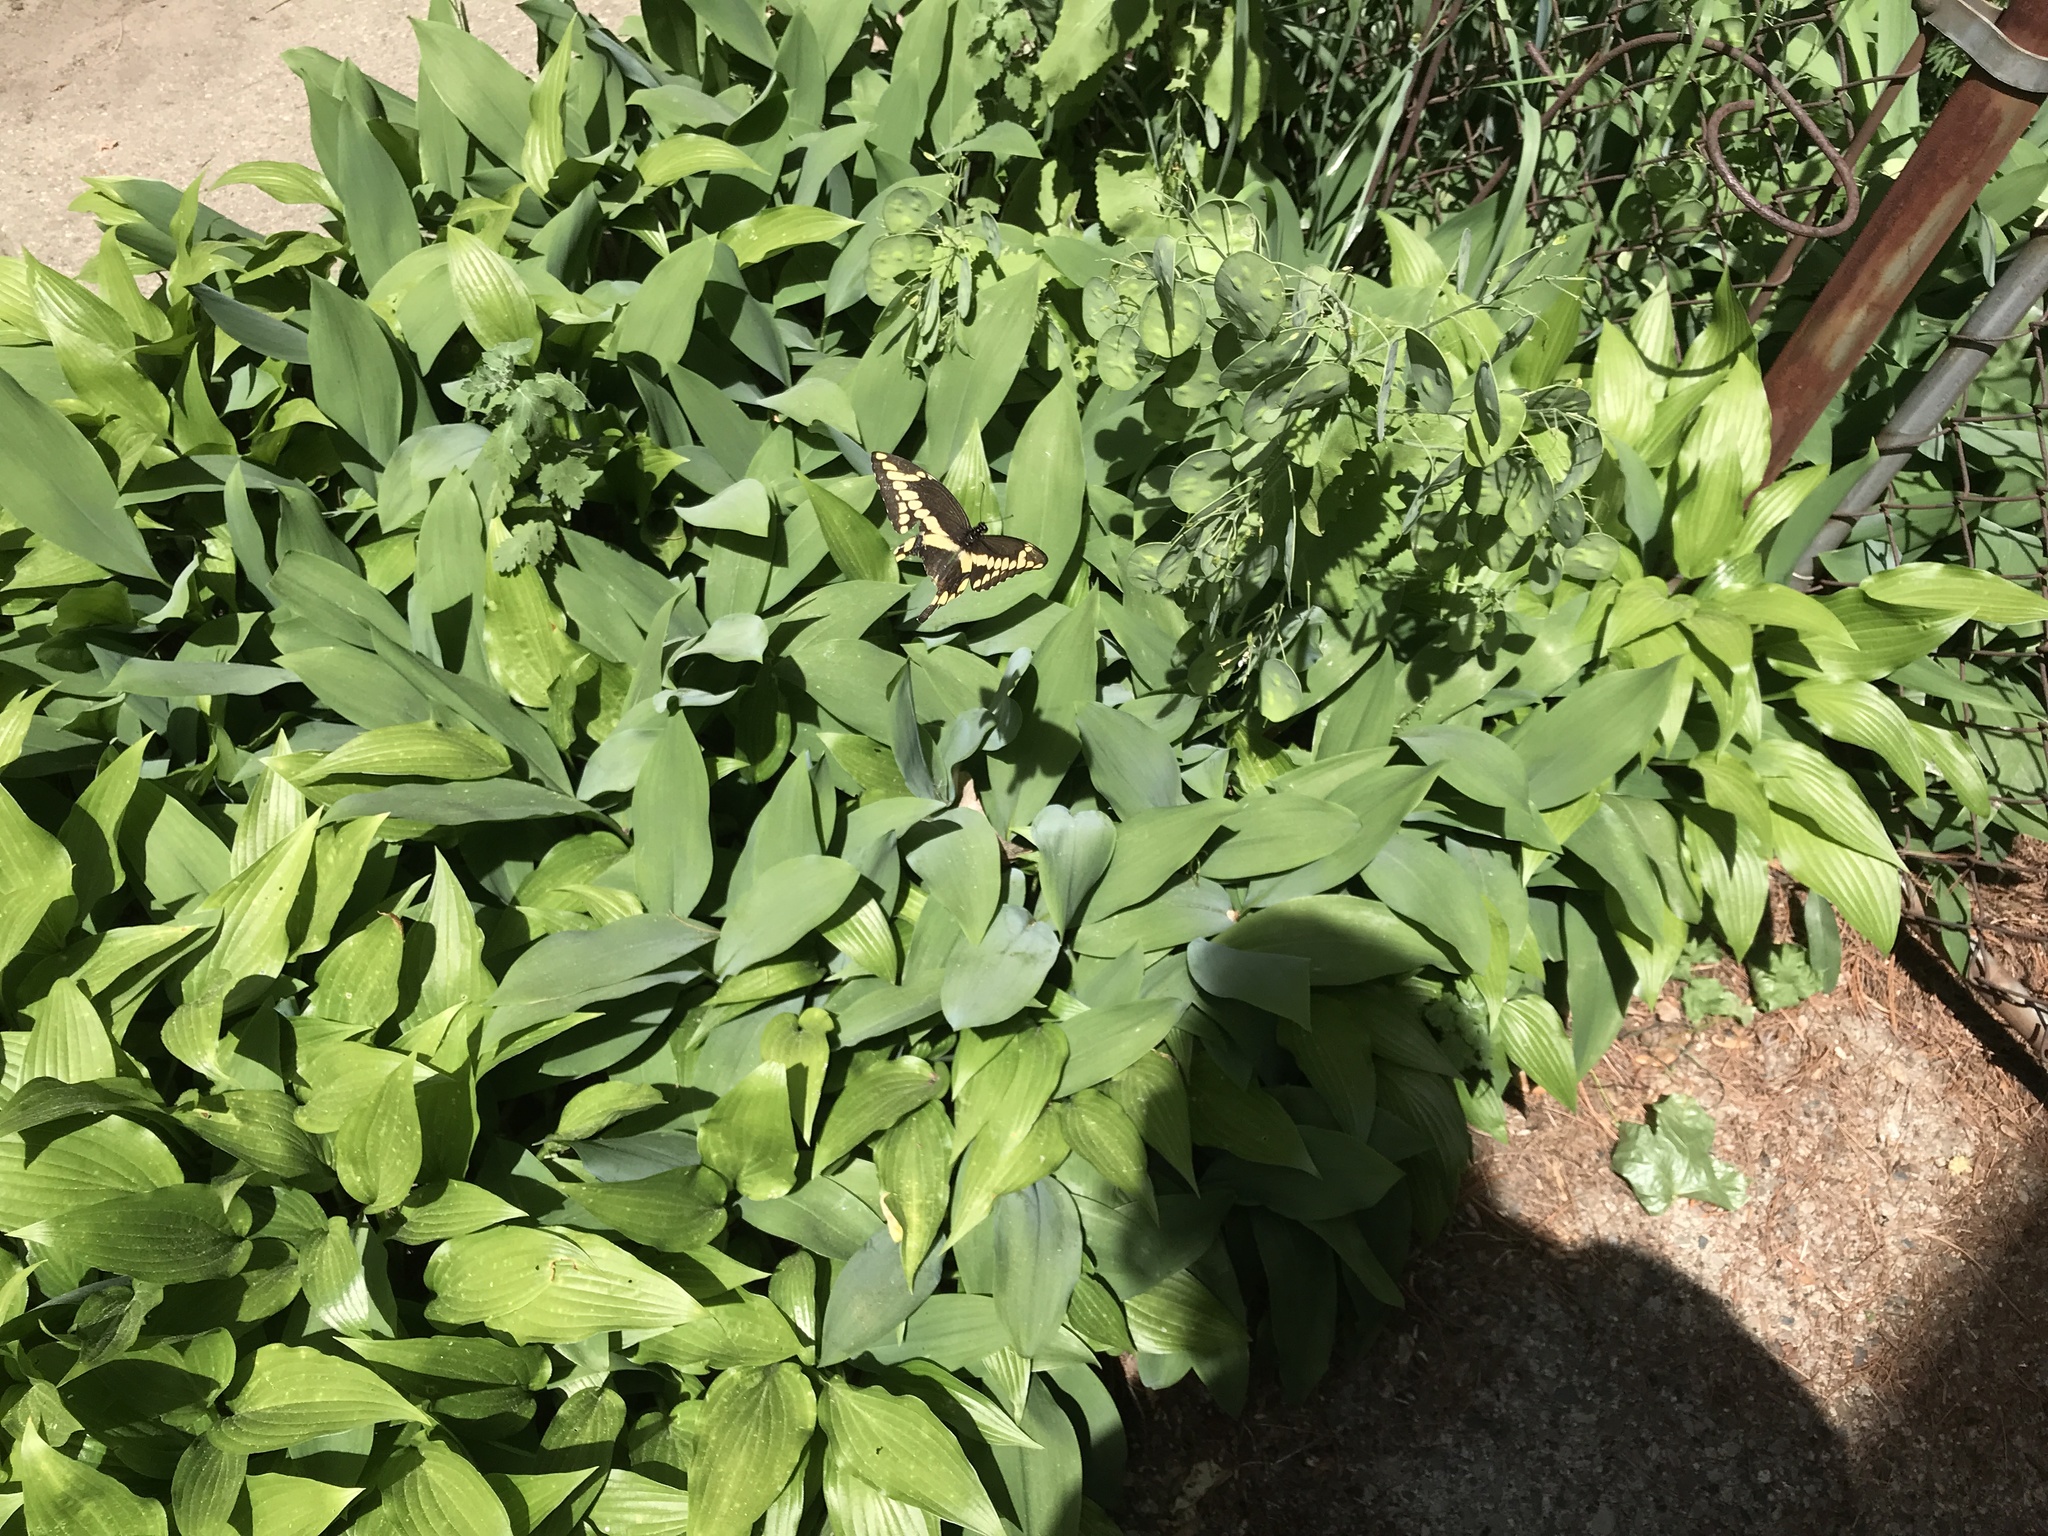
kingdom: Animalia
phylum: Arthropoda
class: Insecta
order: Lepidoptera
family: Papilionidae
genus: Papilio
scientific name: Papilio cresphontes
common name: Giant swallowtail
